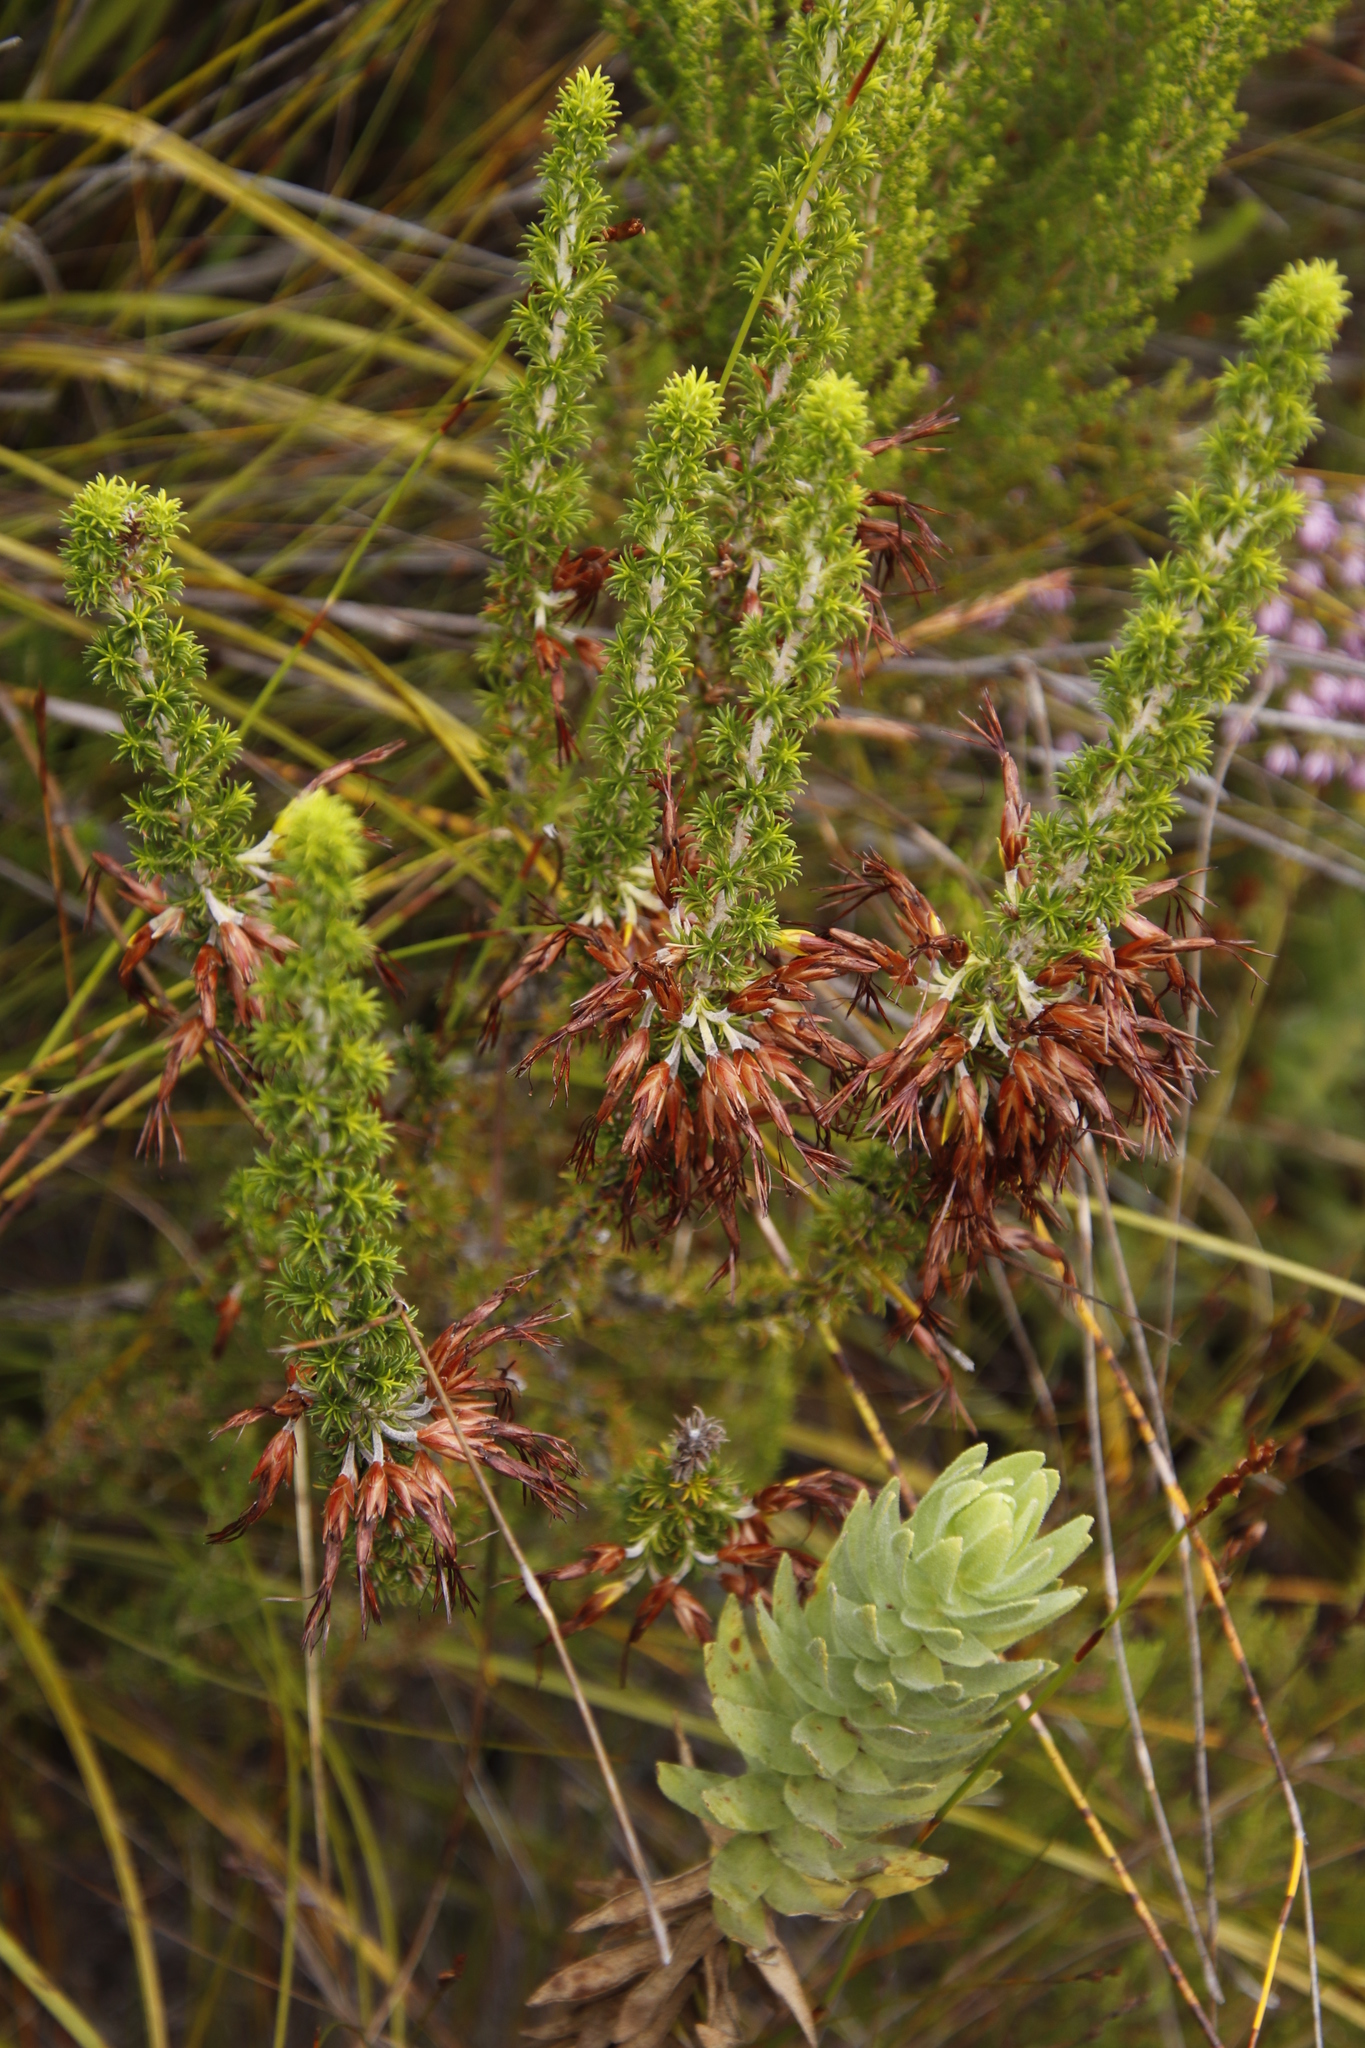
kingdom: Plantae
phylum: Tracheophyta
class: Magnoliopsida
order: Ericales
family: Ericaceae
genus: Erica
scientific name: Erica coccinea
